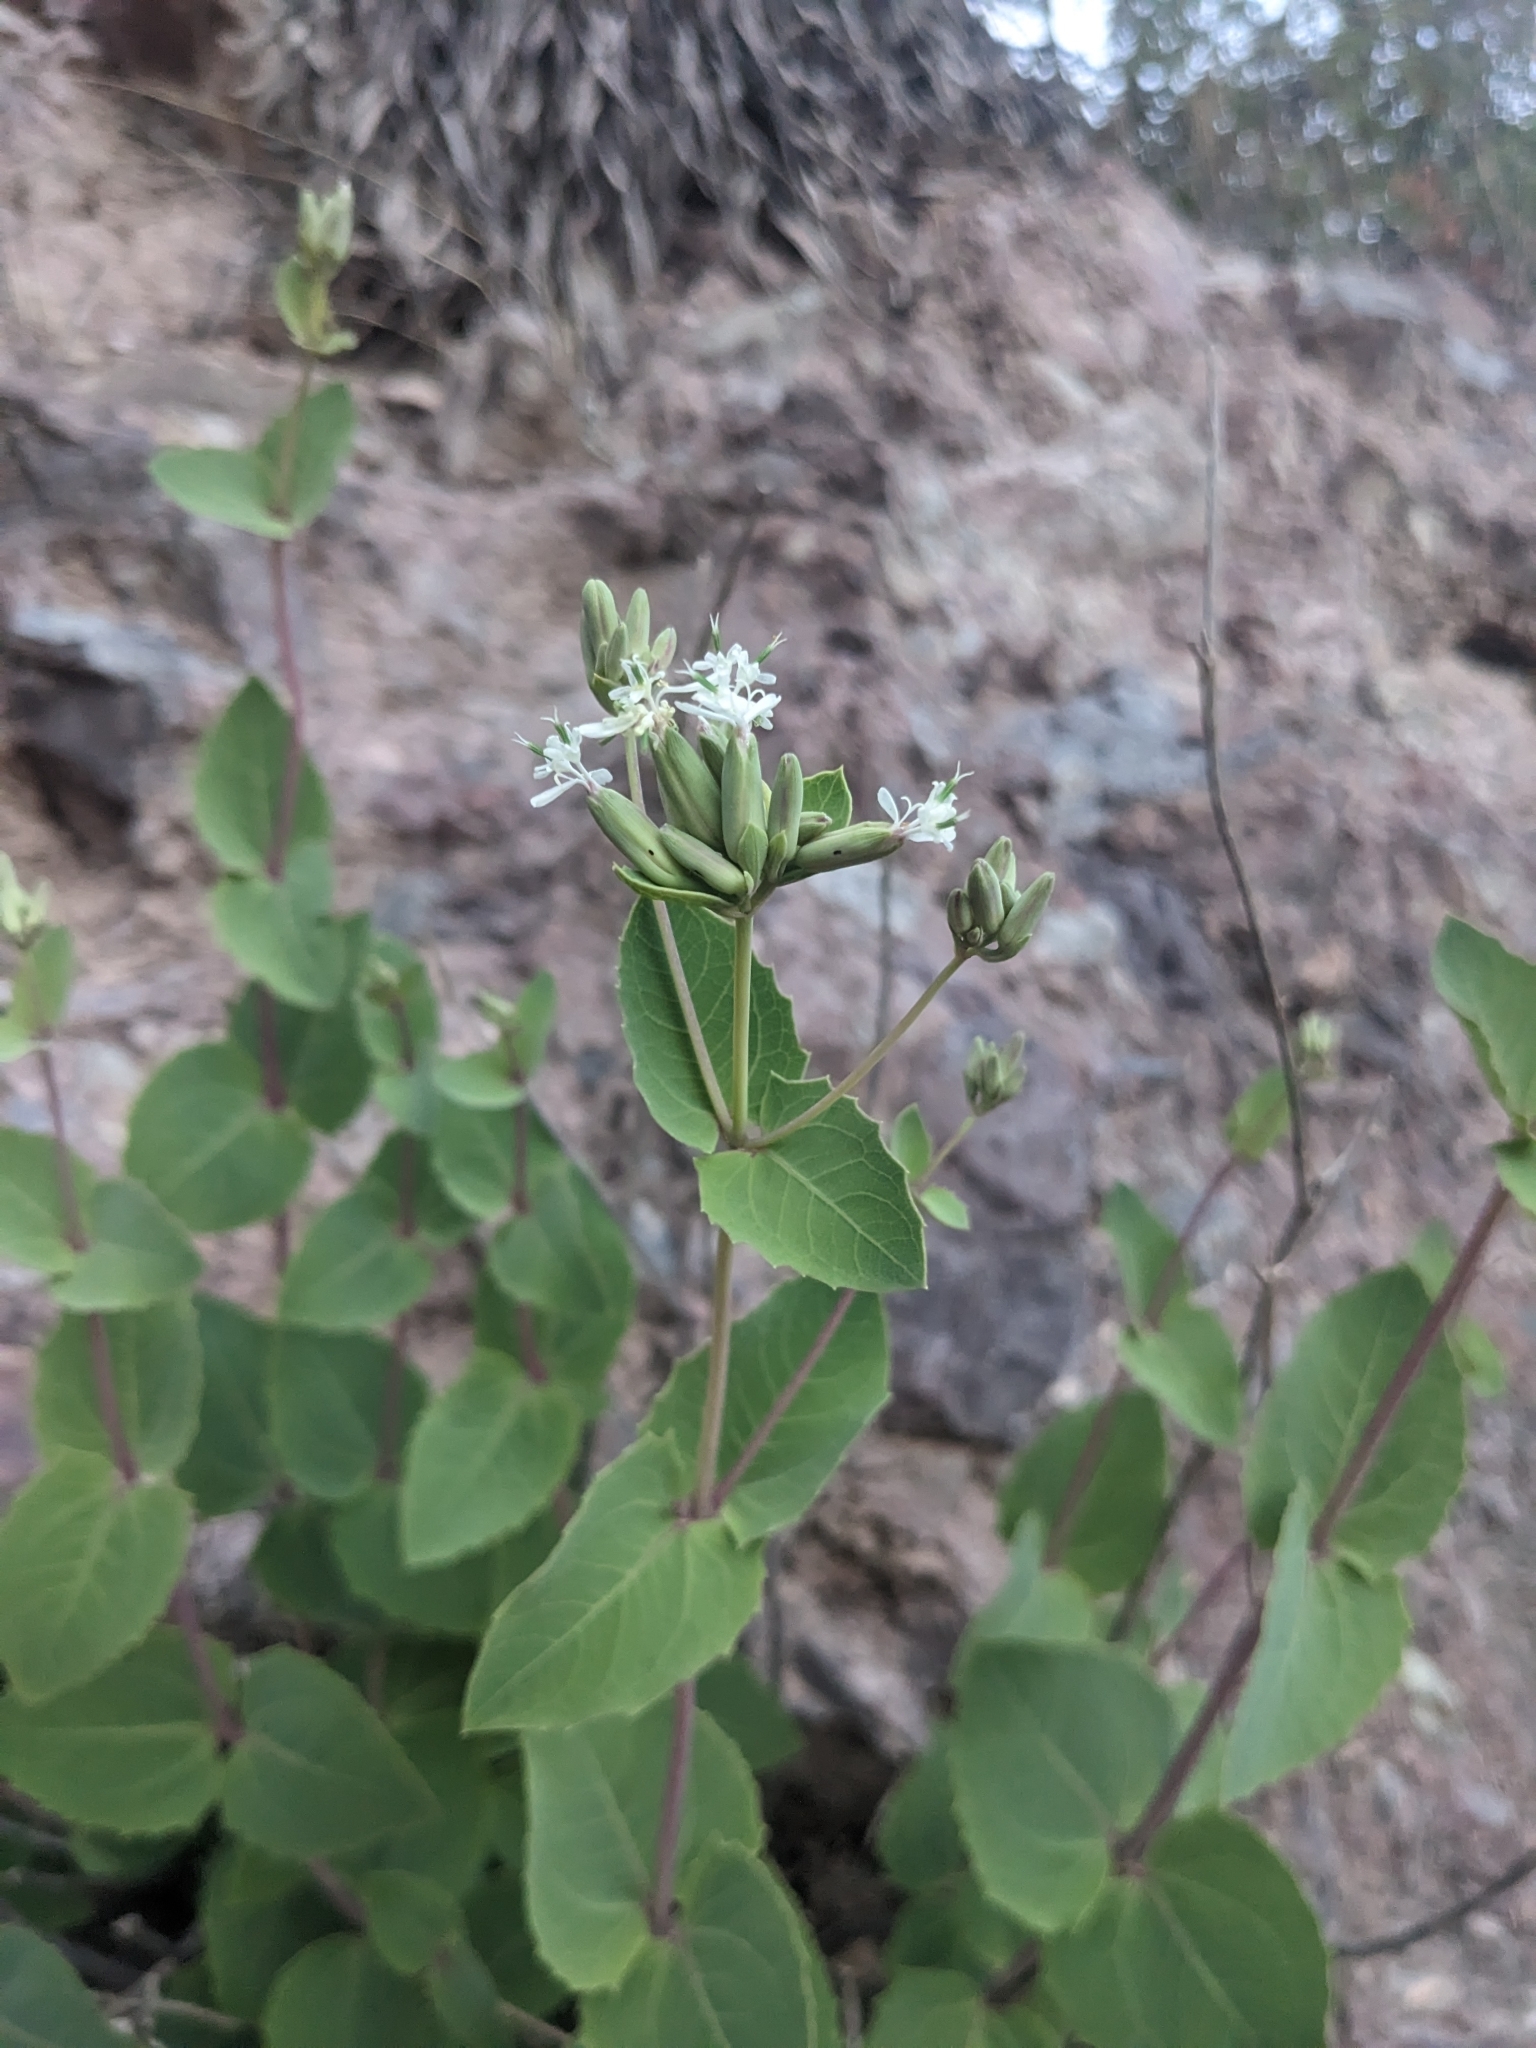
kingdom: Plantae
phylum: Tracheophyta
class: Magnoliopsida
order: Asterales
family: Asteraceae
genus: Guardiola
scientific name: Guardiola platyphylla
